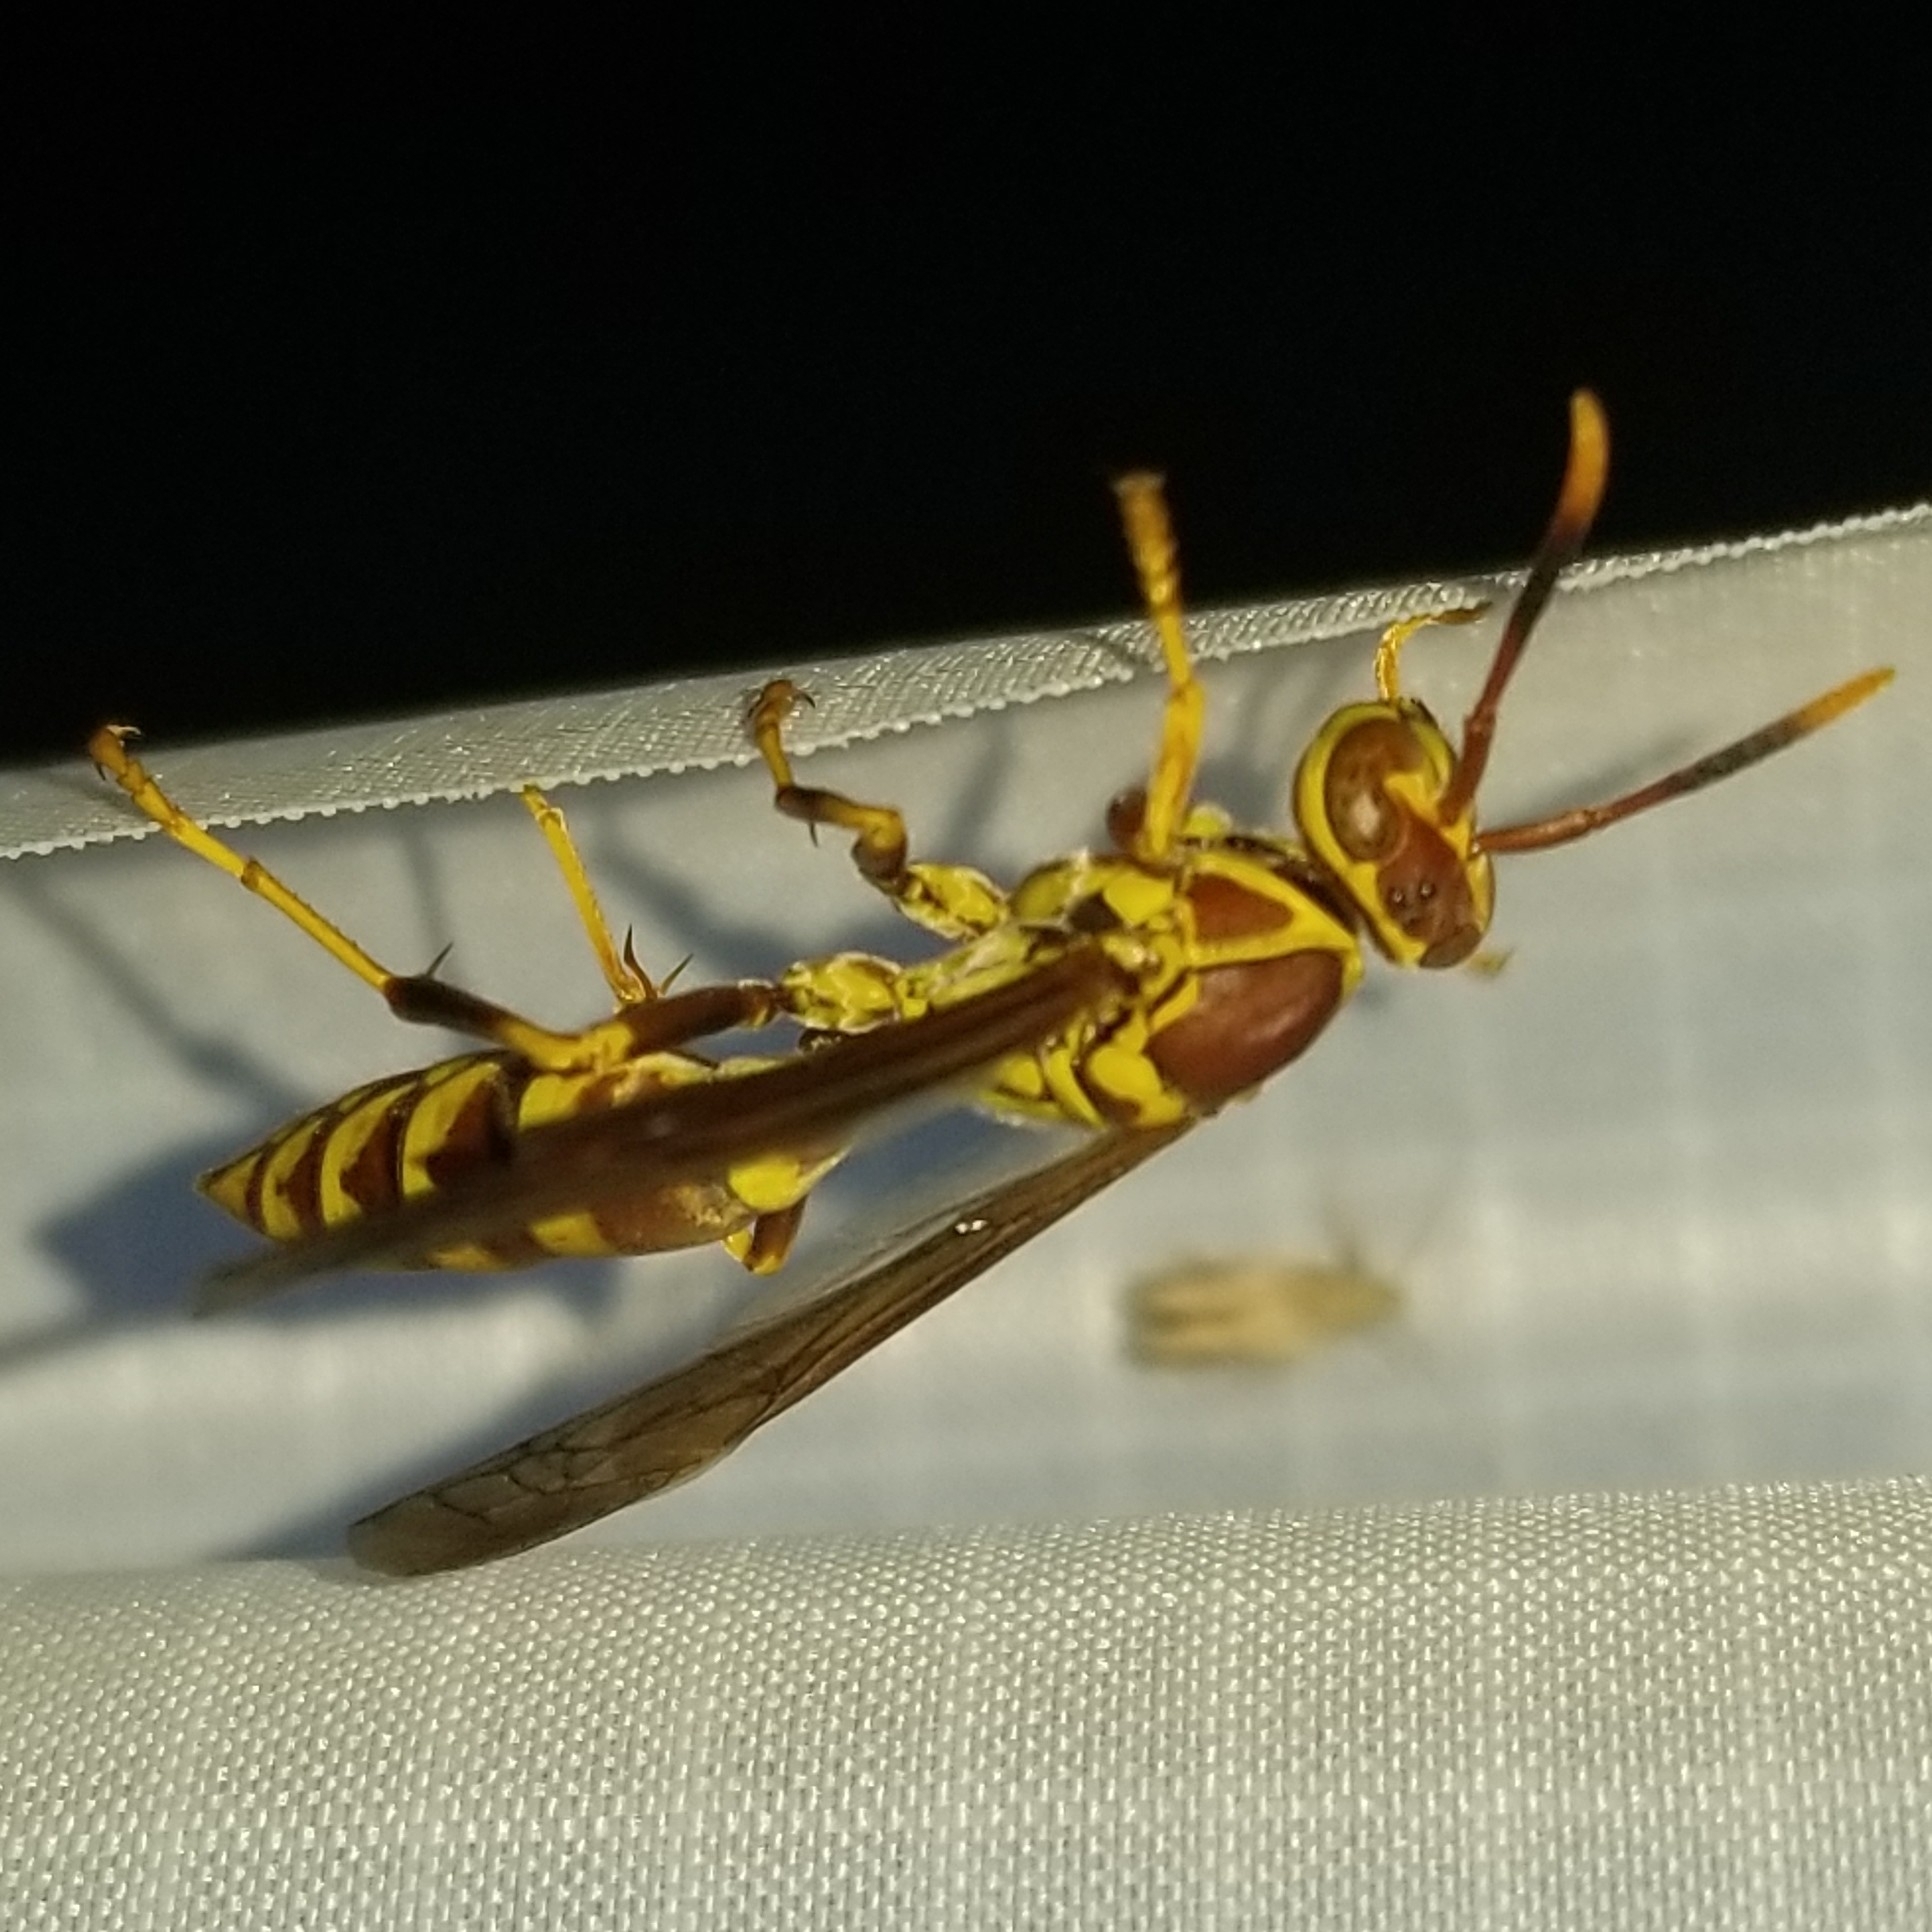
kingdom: Animalia
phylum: Arthropoda
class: Insecta
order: Hymenoptera
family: Eumenidae
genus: Polistes
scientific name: Polistes exclamans
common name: Paper wasp
